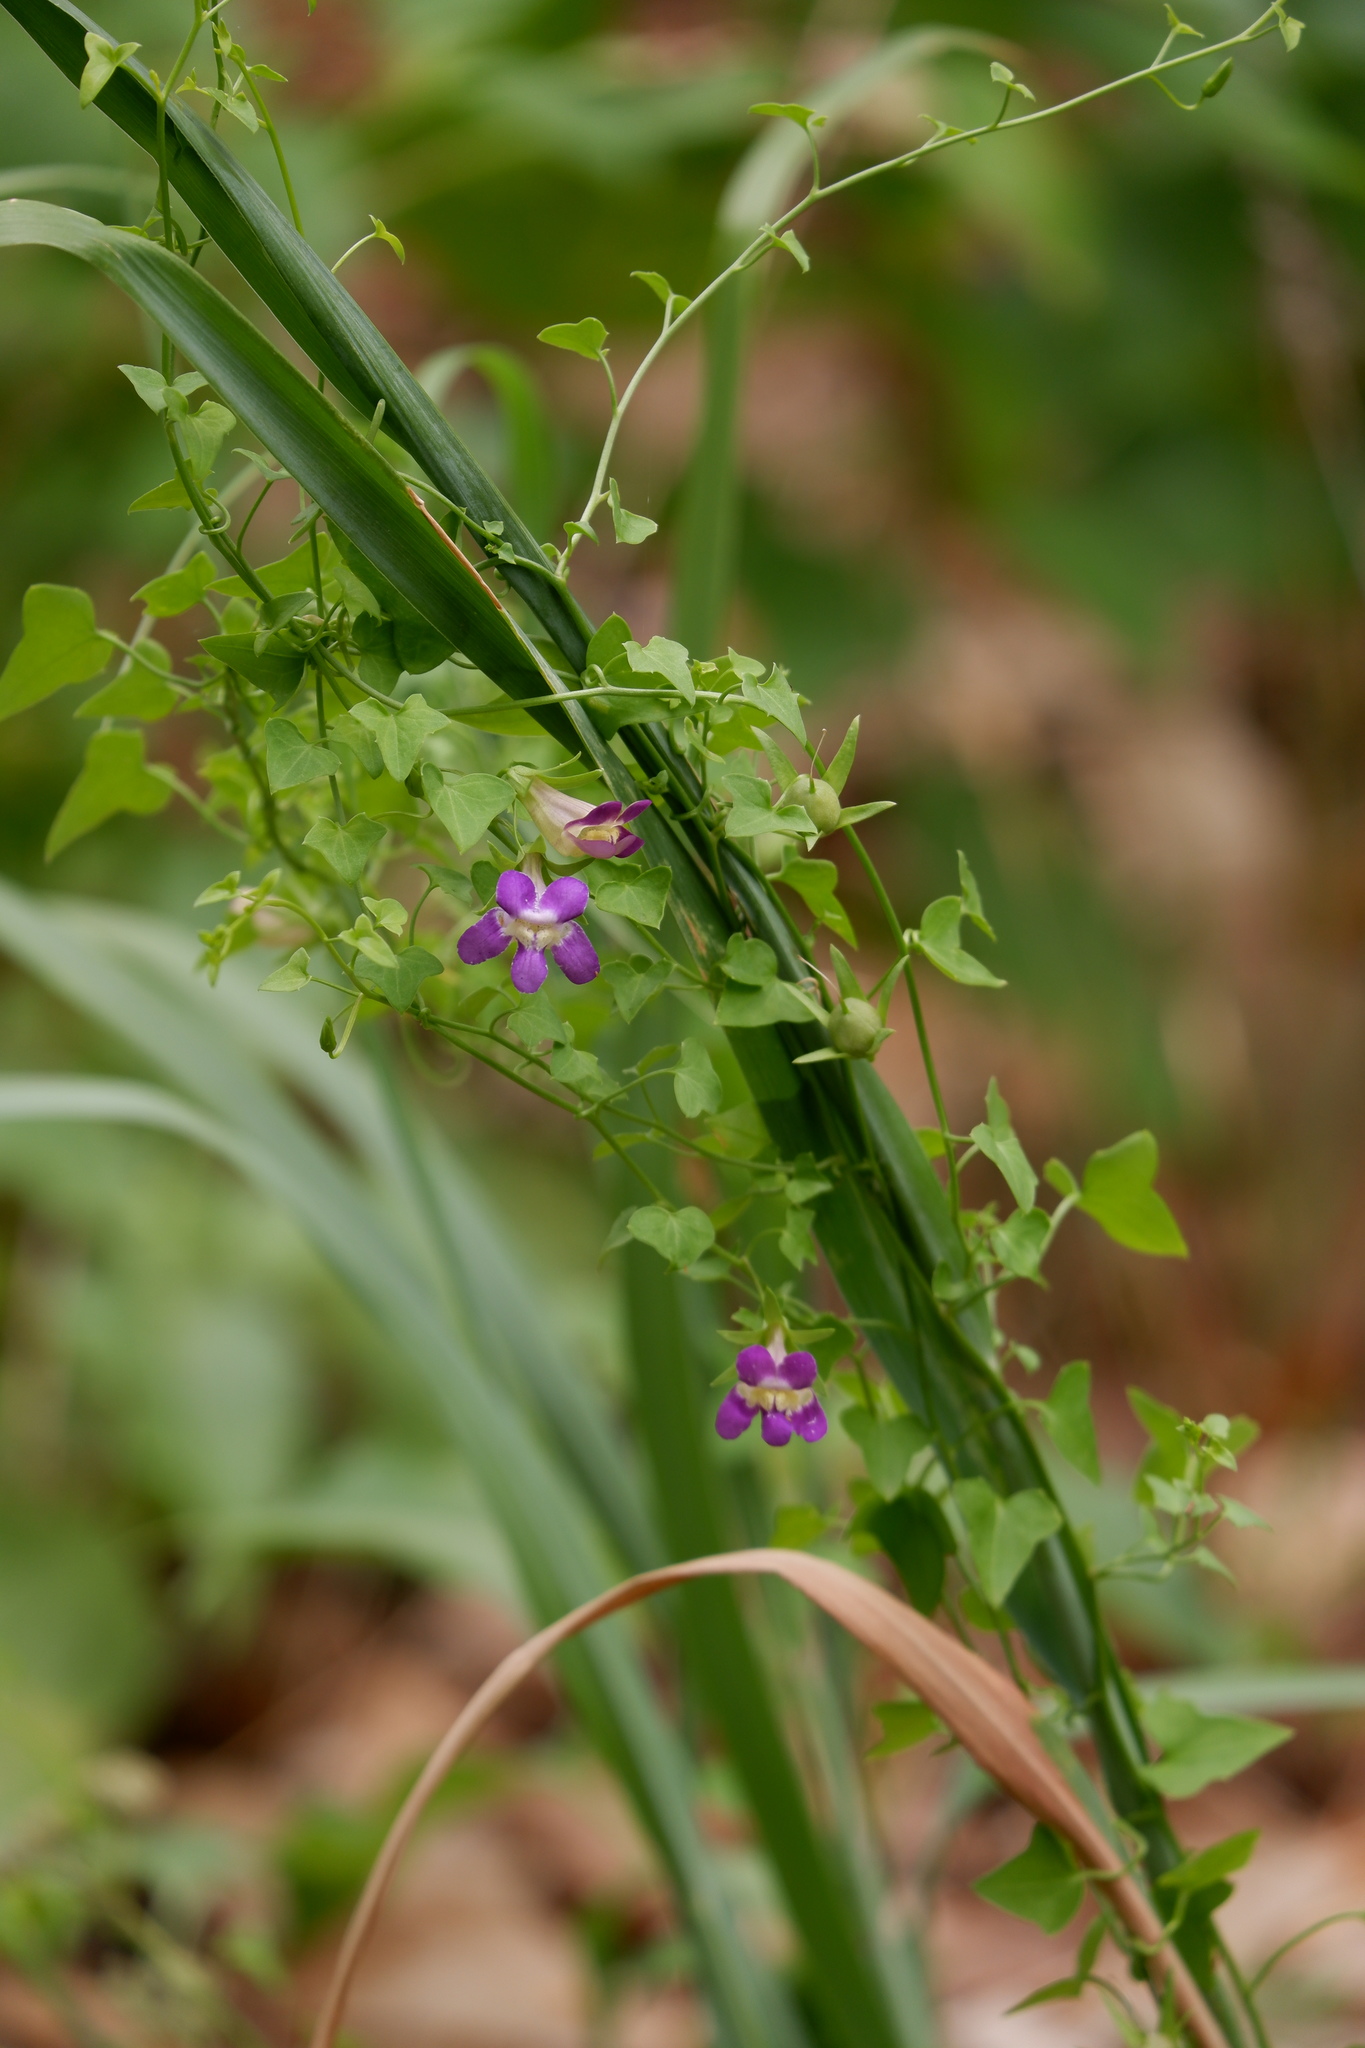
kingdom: Plantae
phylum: Tracheophyta
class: Magnoliopsida
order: Lamiales
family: Plantaginaceae
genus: Maurandella
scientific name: Maurandella antirrhiniflora
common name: Violet twining-snapdragon
